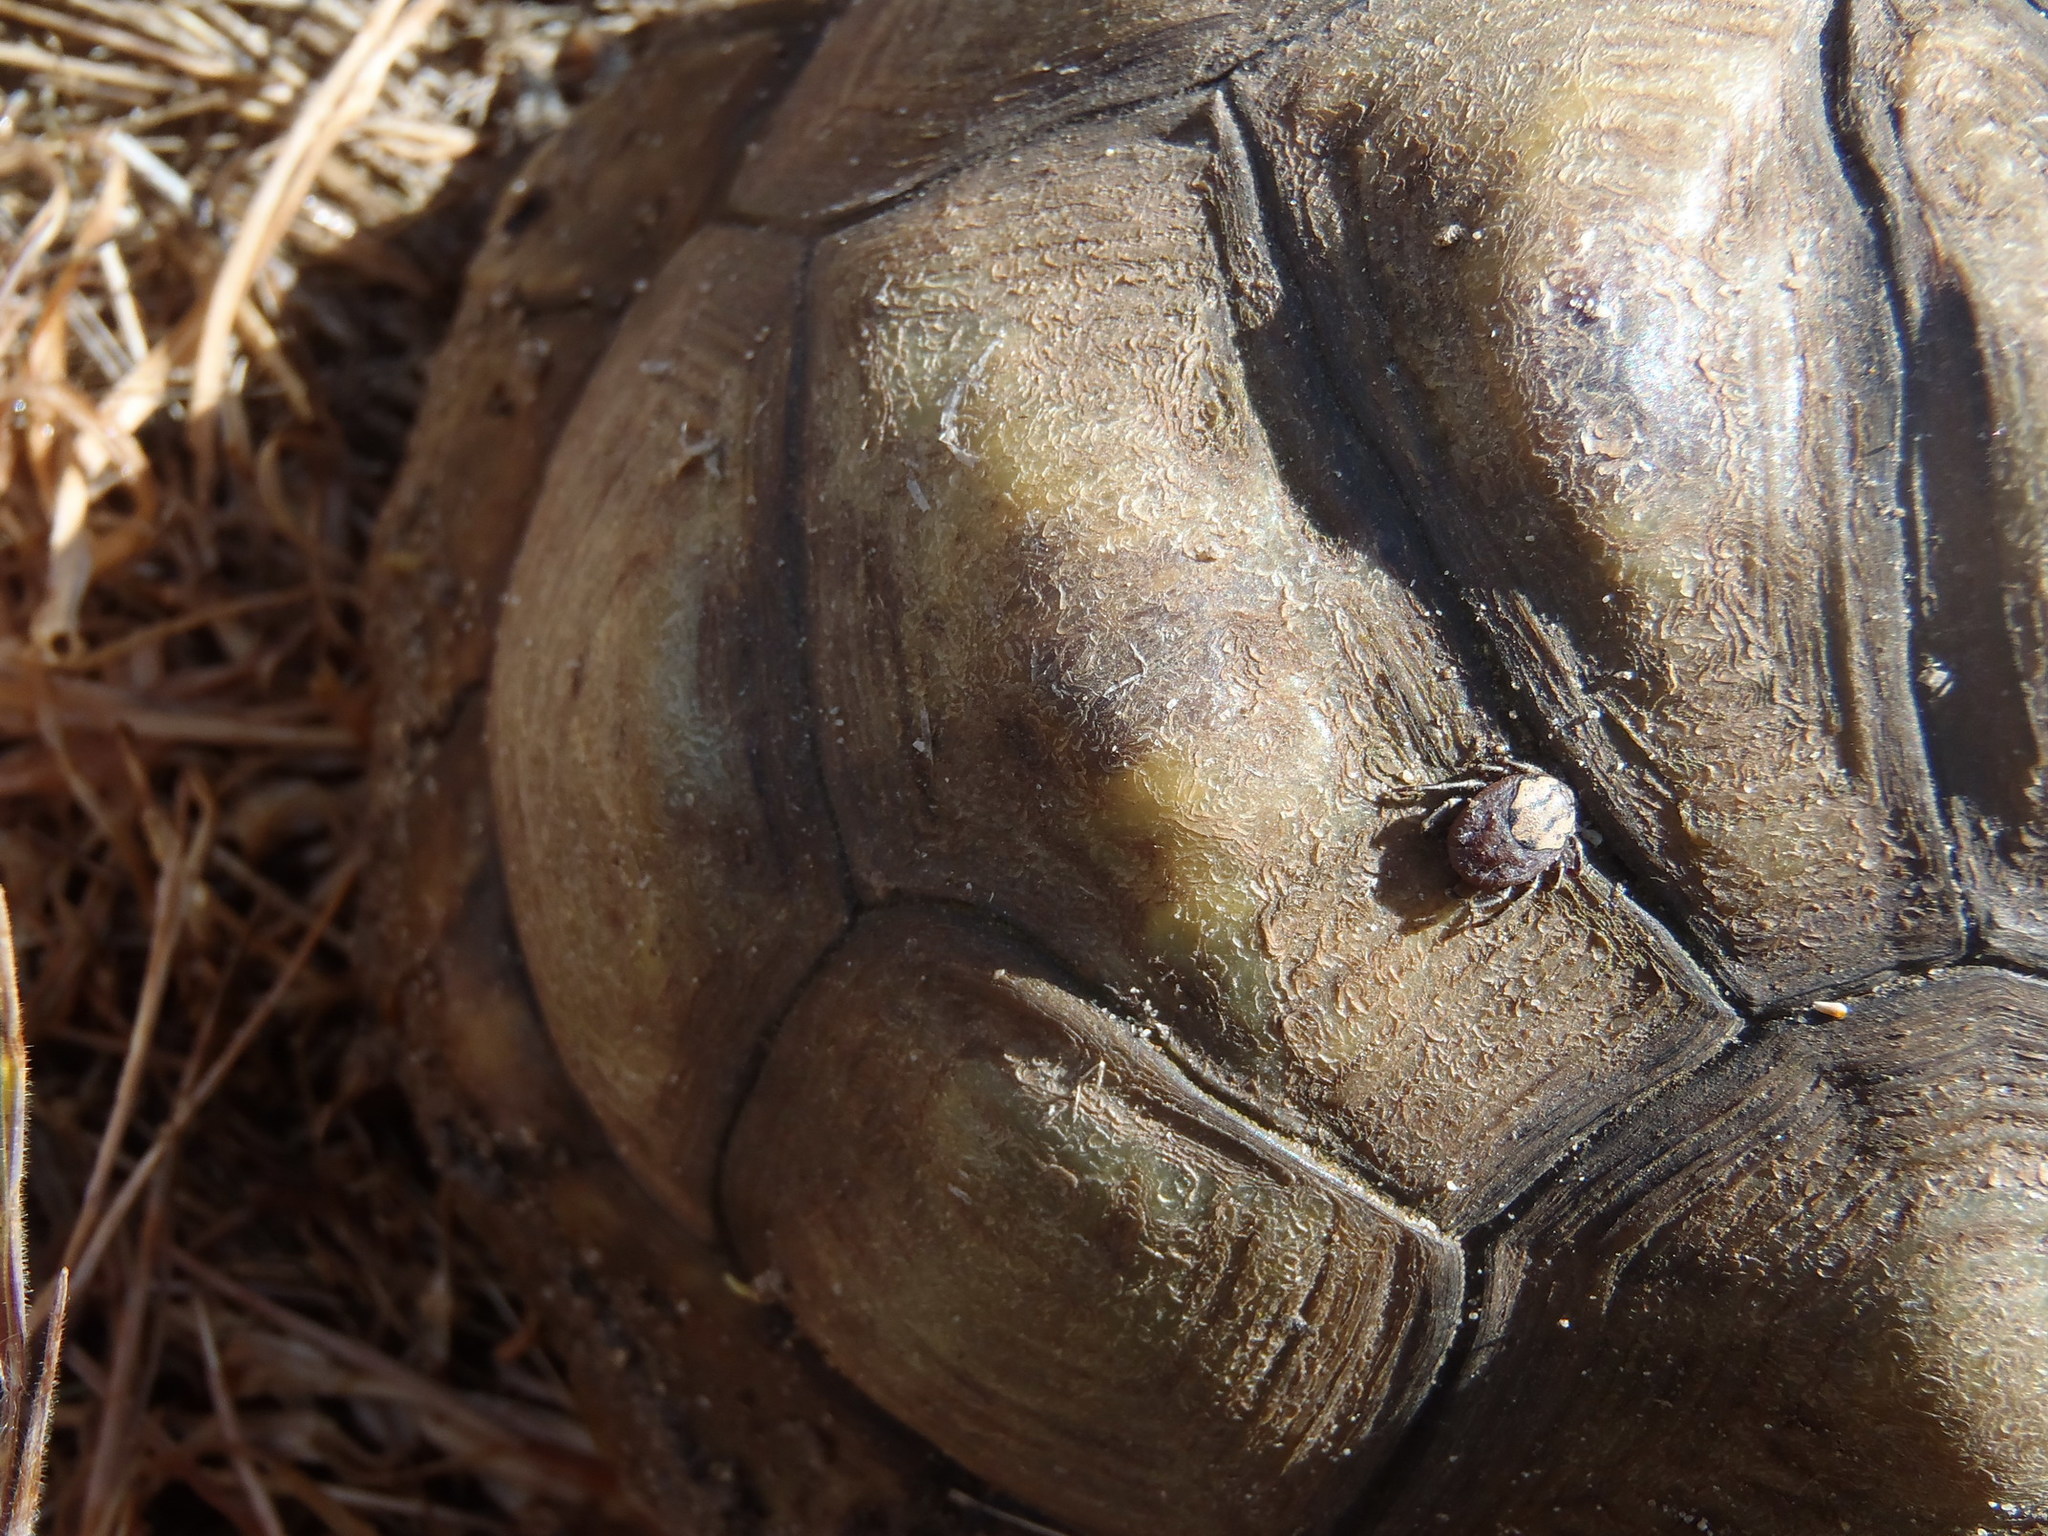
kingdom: Animalia
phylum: Arthropoda
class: Arachnida
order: Ixodida
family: Ixodidae
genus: Amblyomma
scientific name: Amblyomma sylvaticum
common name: Cape tortoise tick
